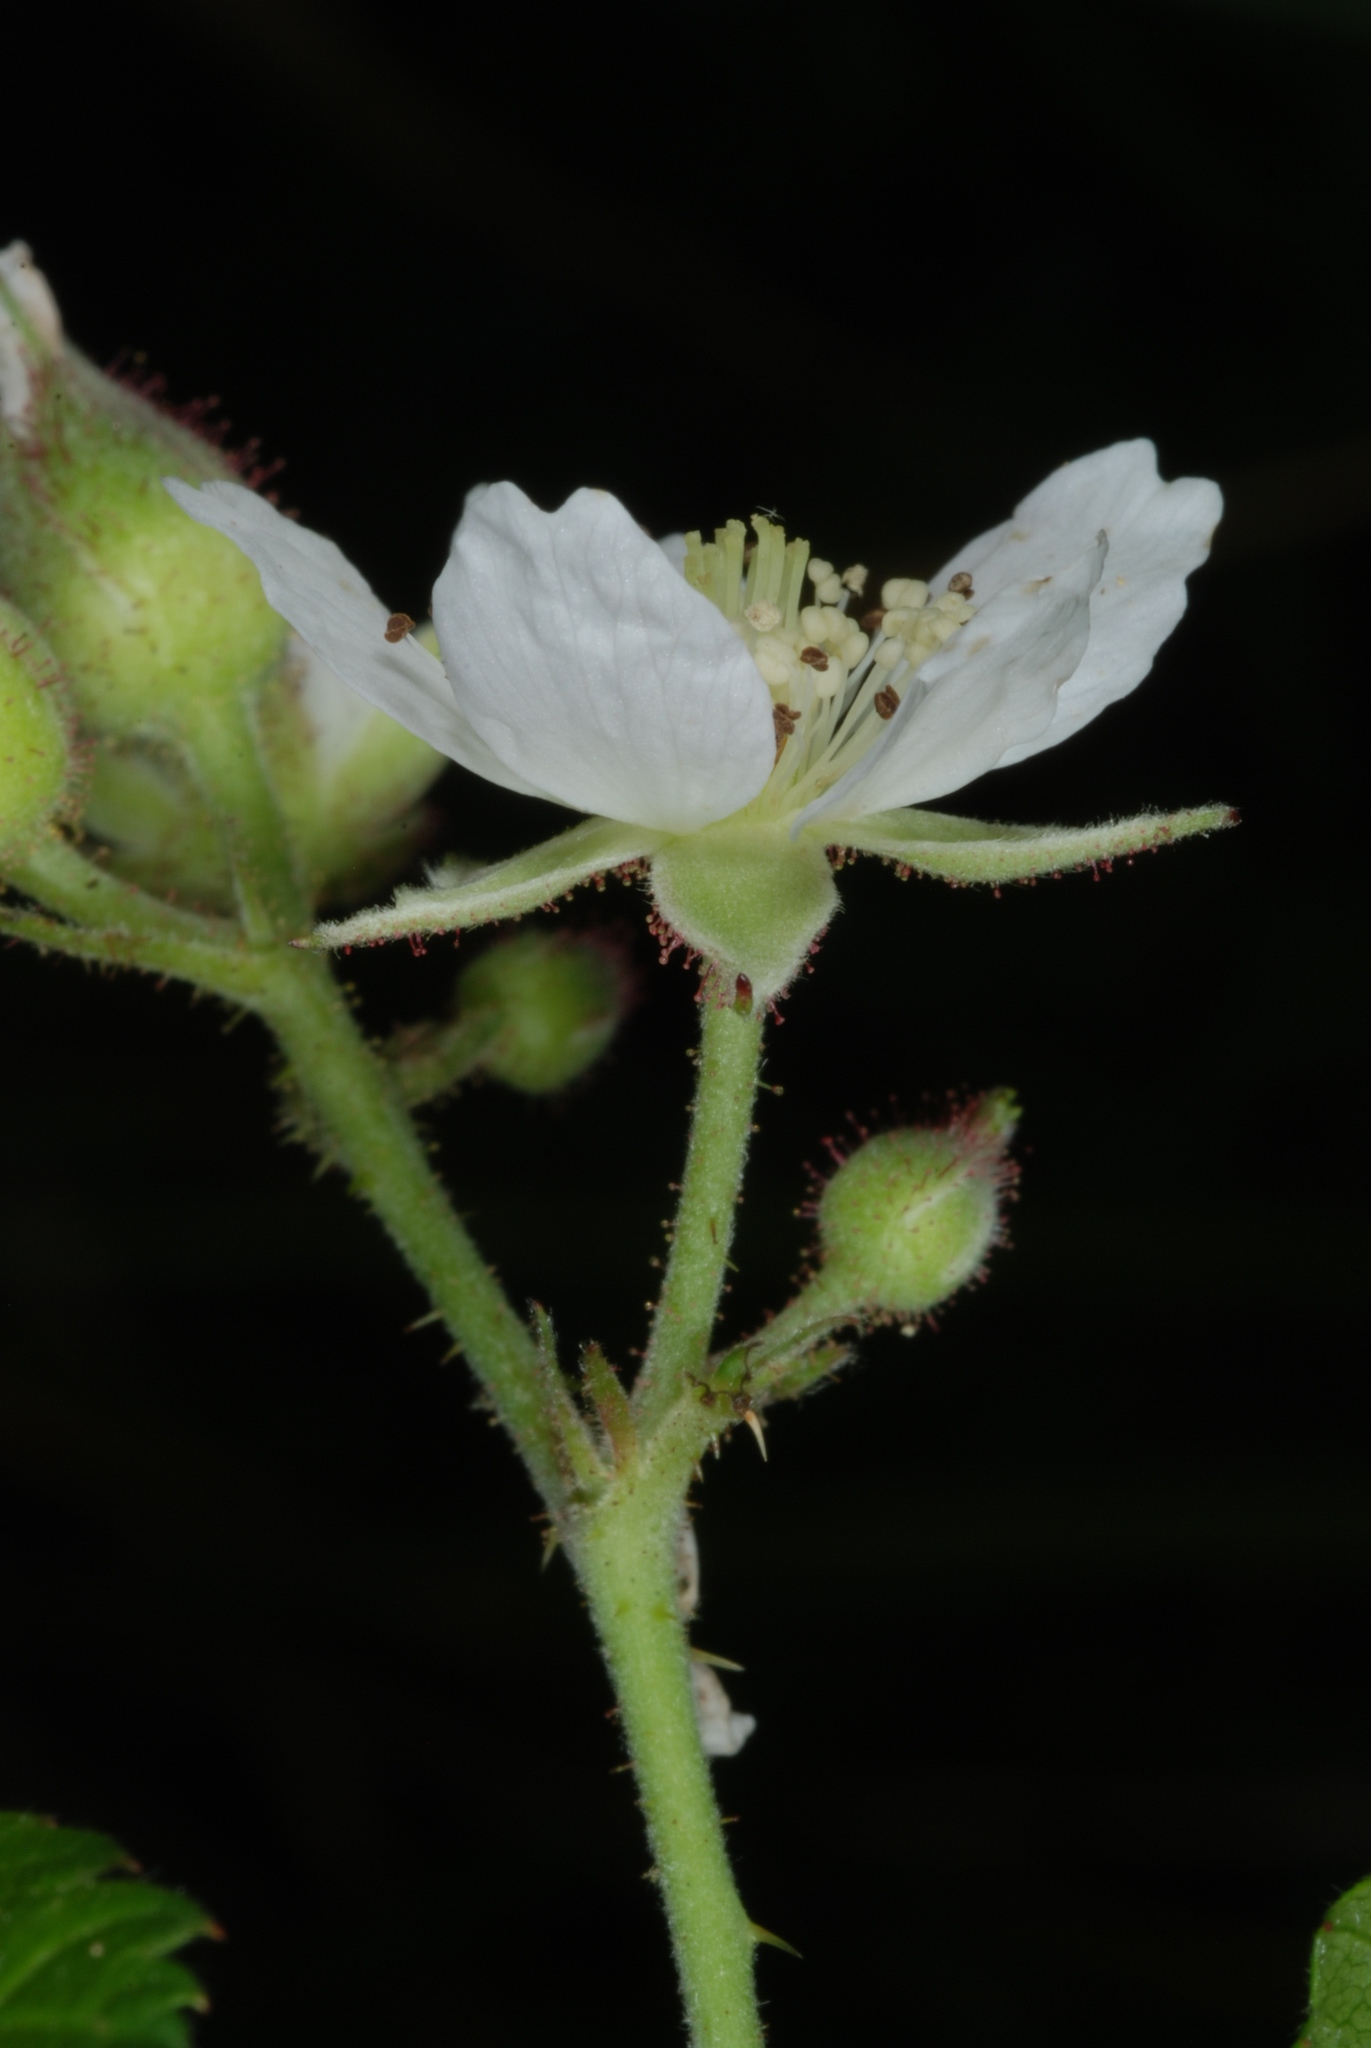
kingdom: Plantae
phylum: Tracheophyta
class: Magnoliopsida
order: Rosales
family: Rosaceae
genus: Rubus
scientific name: Rubus caesius
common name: Dewberry
